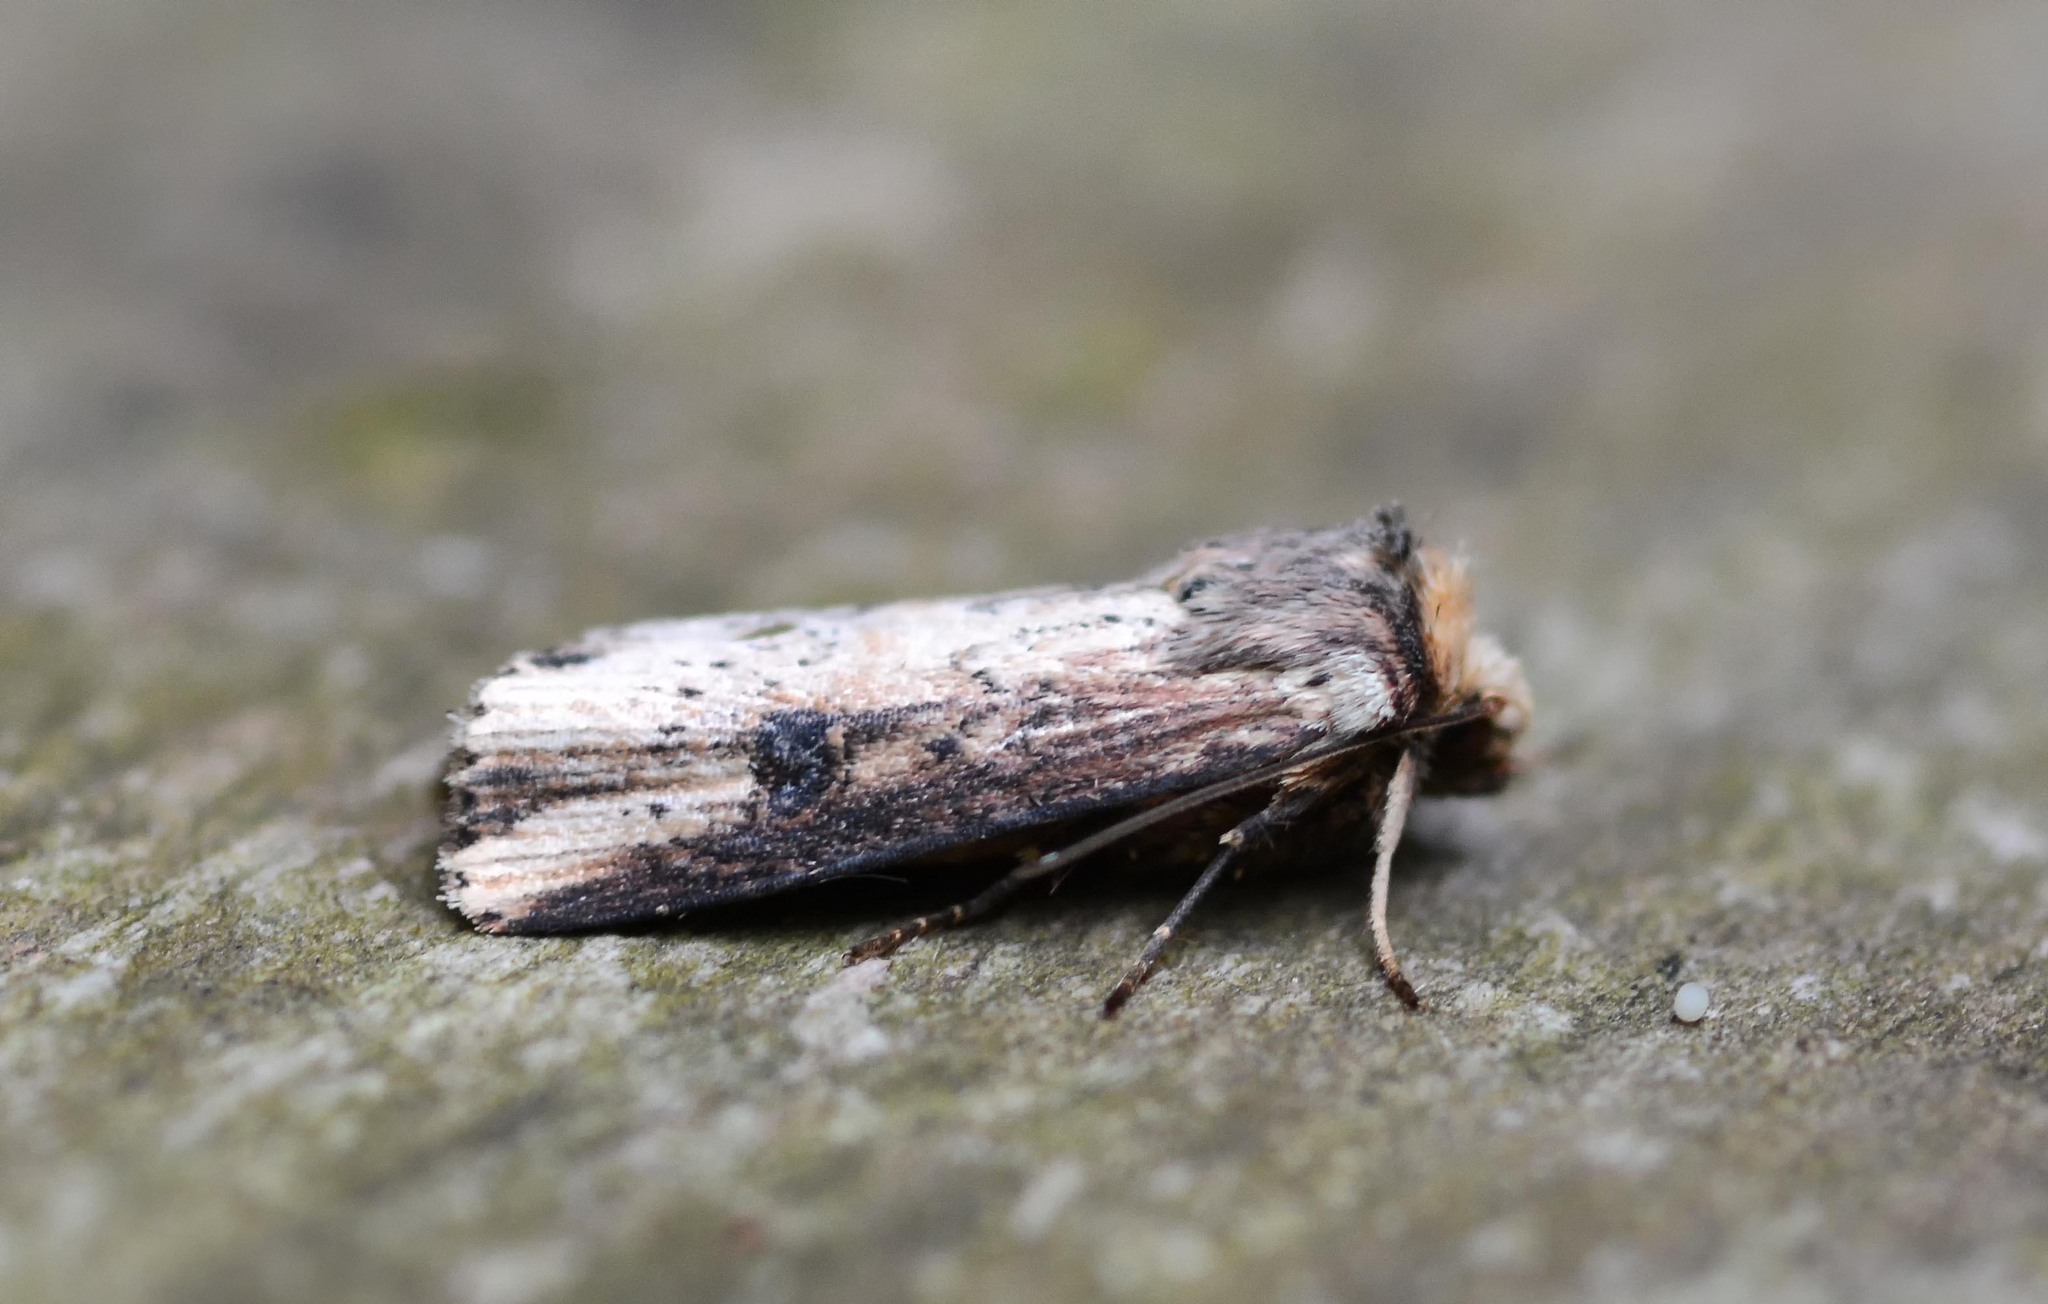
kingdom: Animalia
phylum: Arthropoda
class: Insecta
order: Lepidoptera
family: Noctuidae
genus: Axylia
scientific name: Axylia putris
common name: Flame
